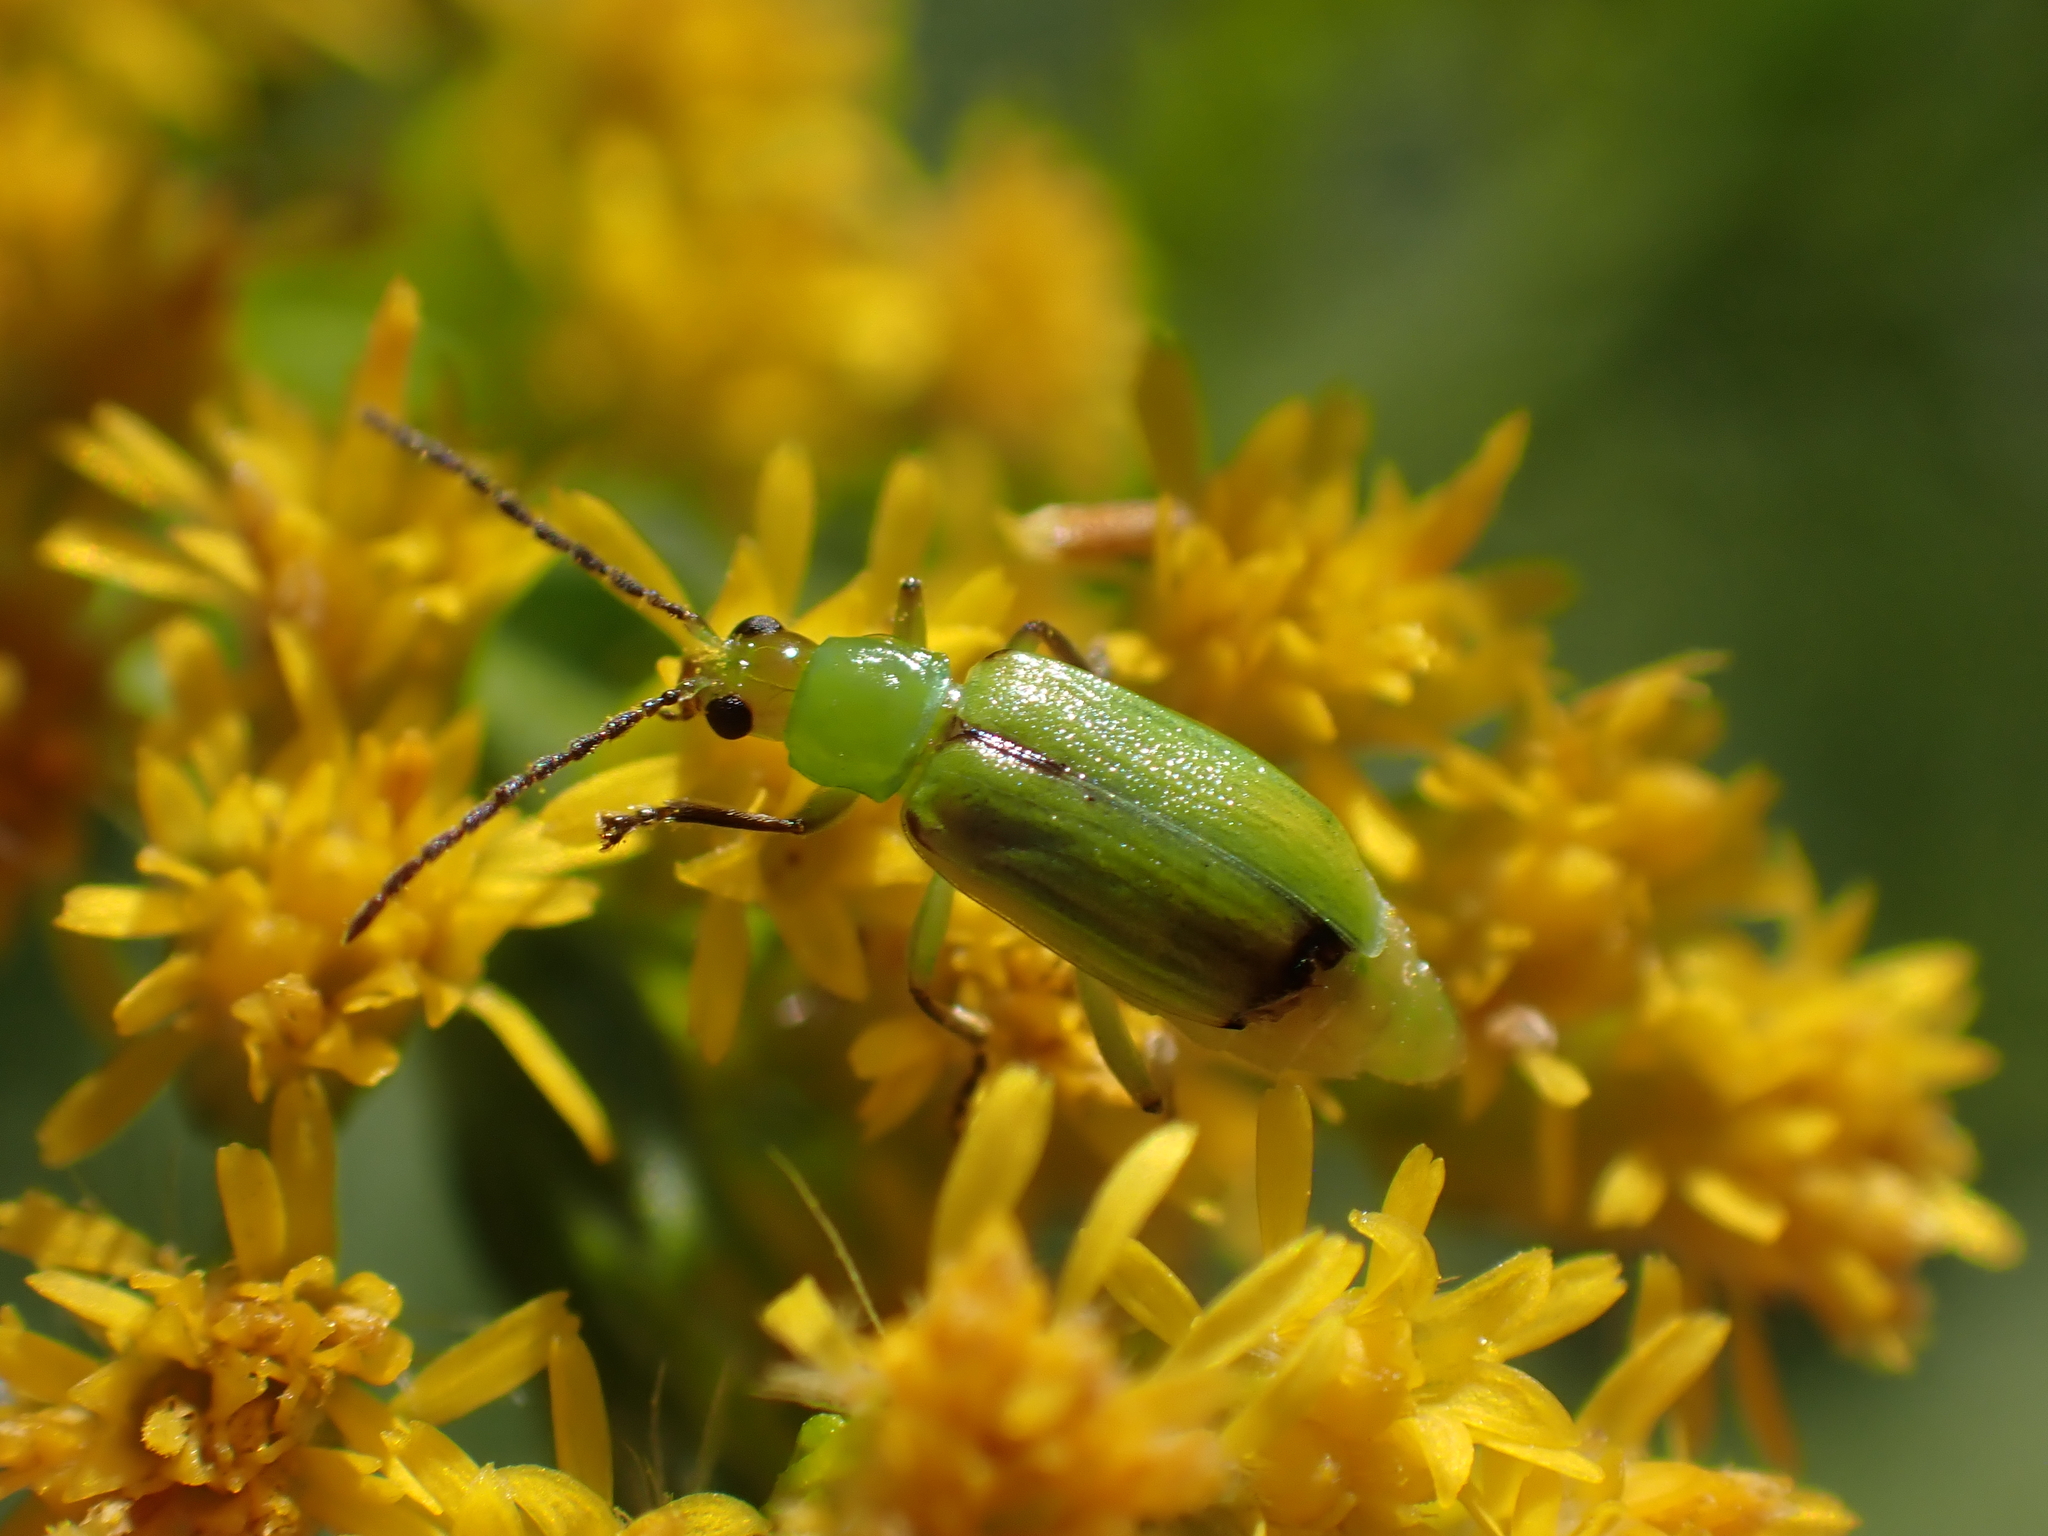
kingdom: Animalia
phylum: Arthropoda
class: Insecta
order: Coleoptera
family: Chrysomelidae
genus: Diabrotica
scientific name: Diabrotica barberi
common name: Northern corn rootworm
